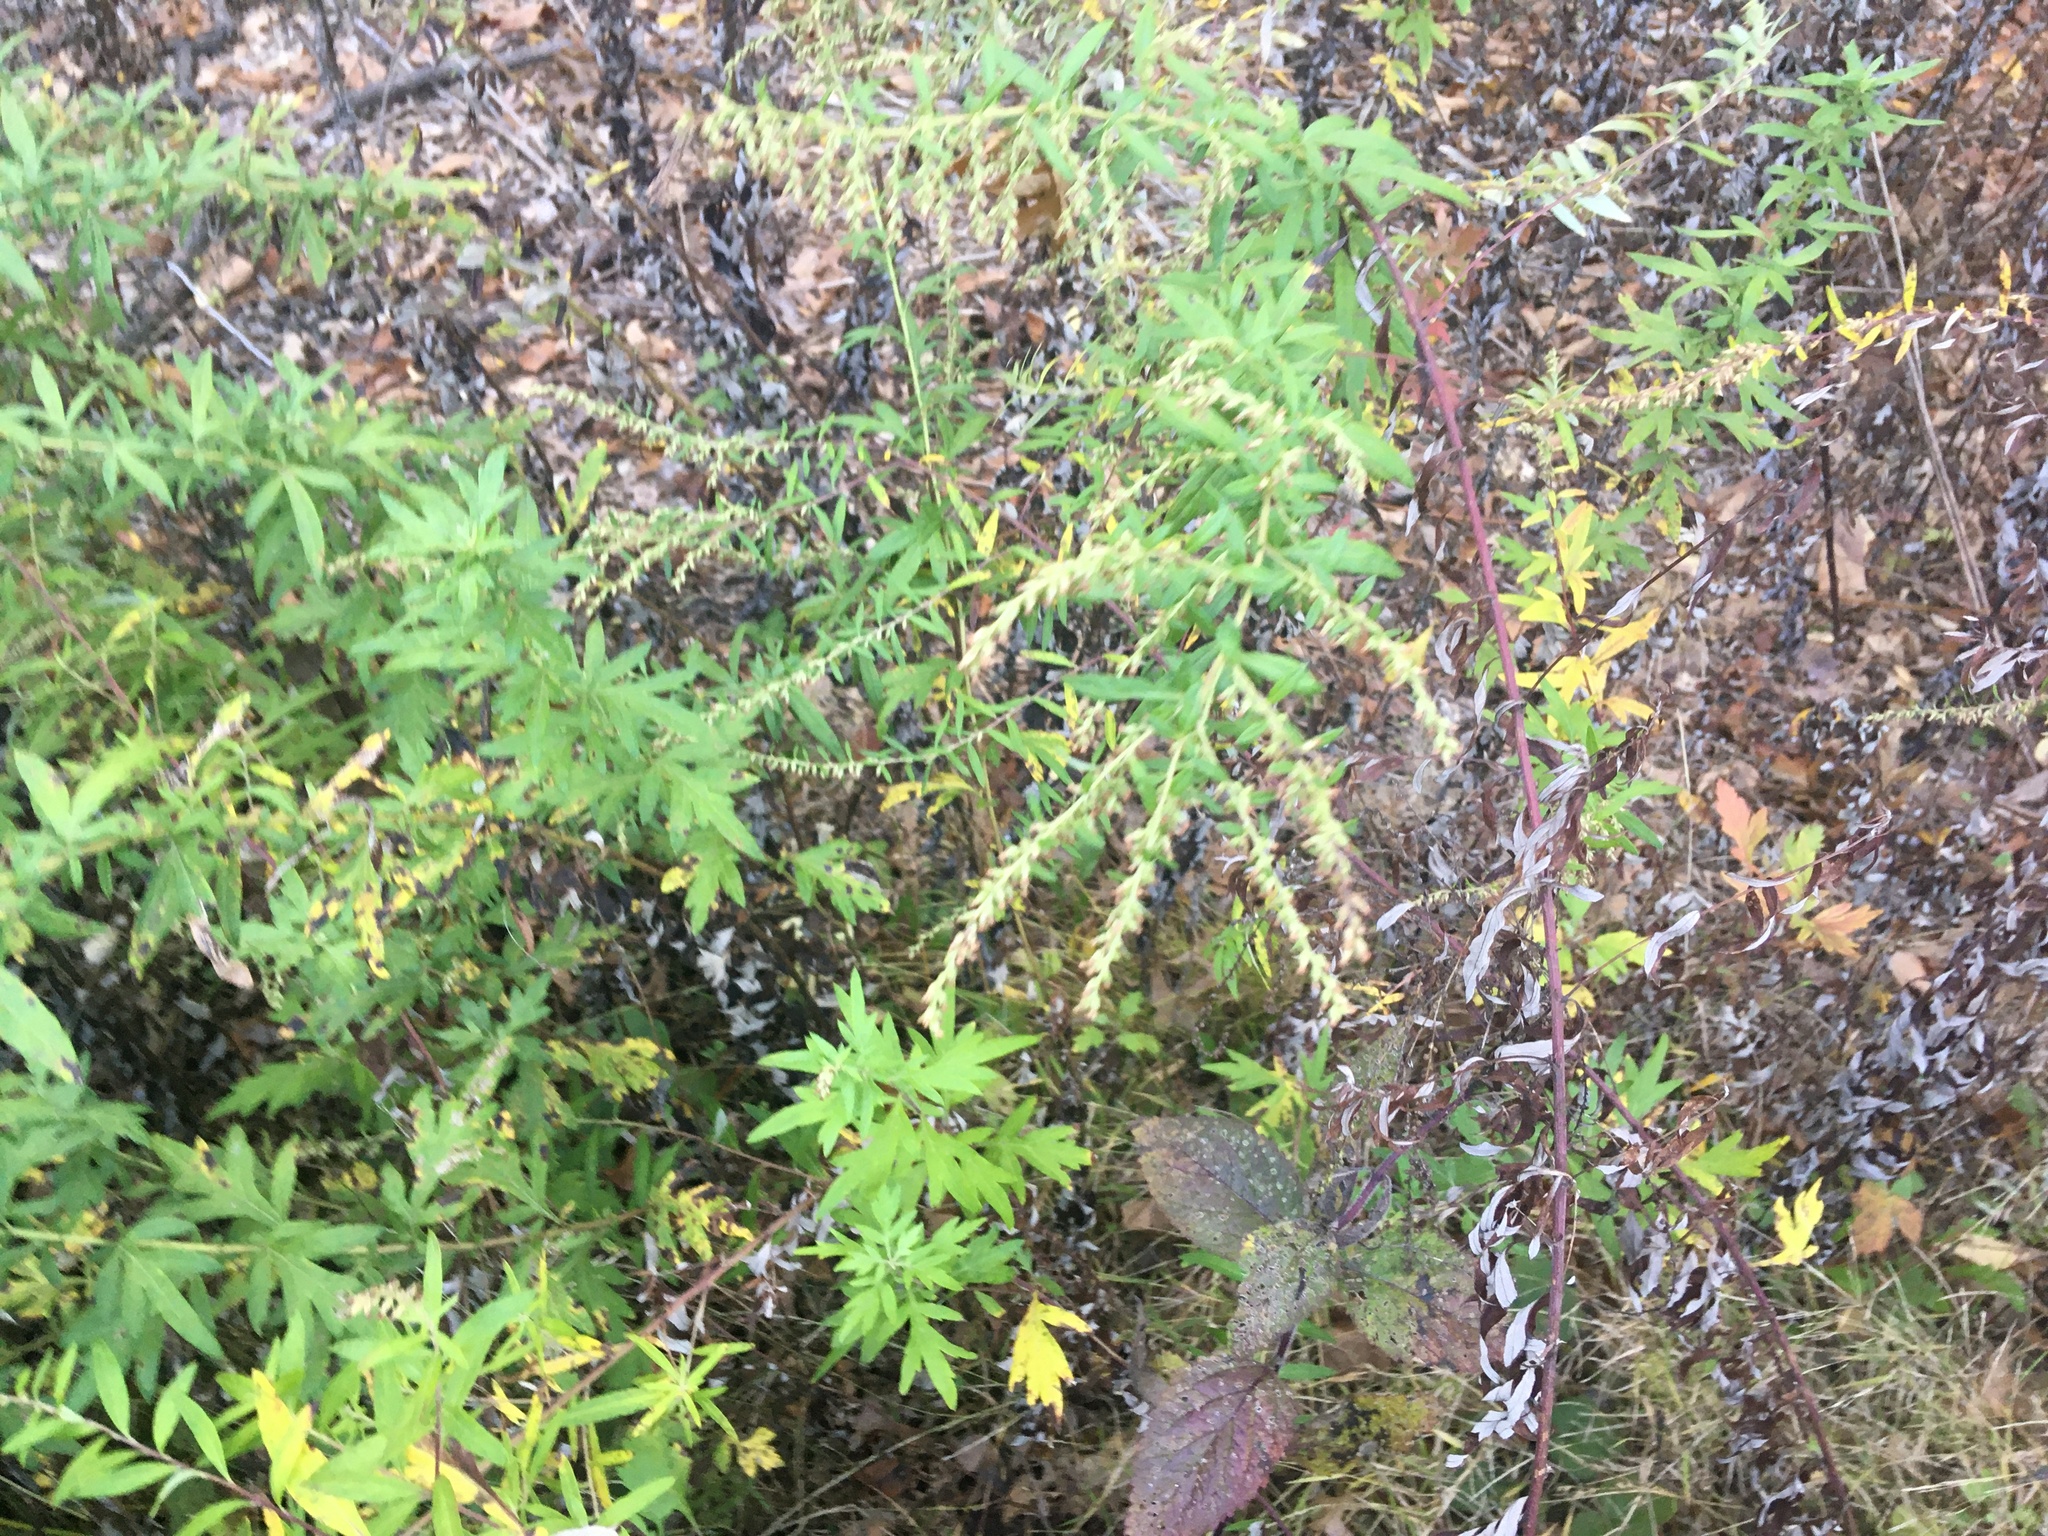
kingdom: Plantae
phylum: Tracheophyta
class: Magnoliopsida
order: Asterales
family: Asteraceae
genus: Artemisia
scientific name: Artemisia vulgaris
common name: Mugwort
